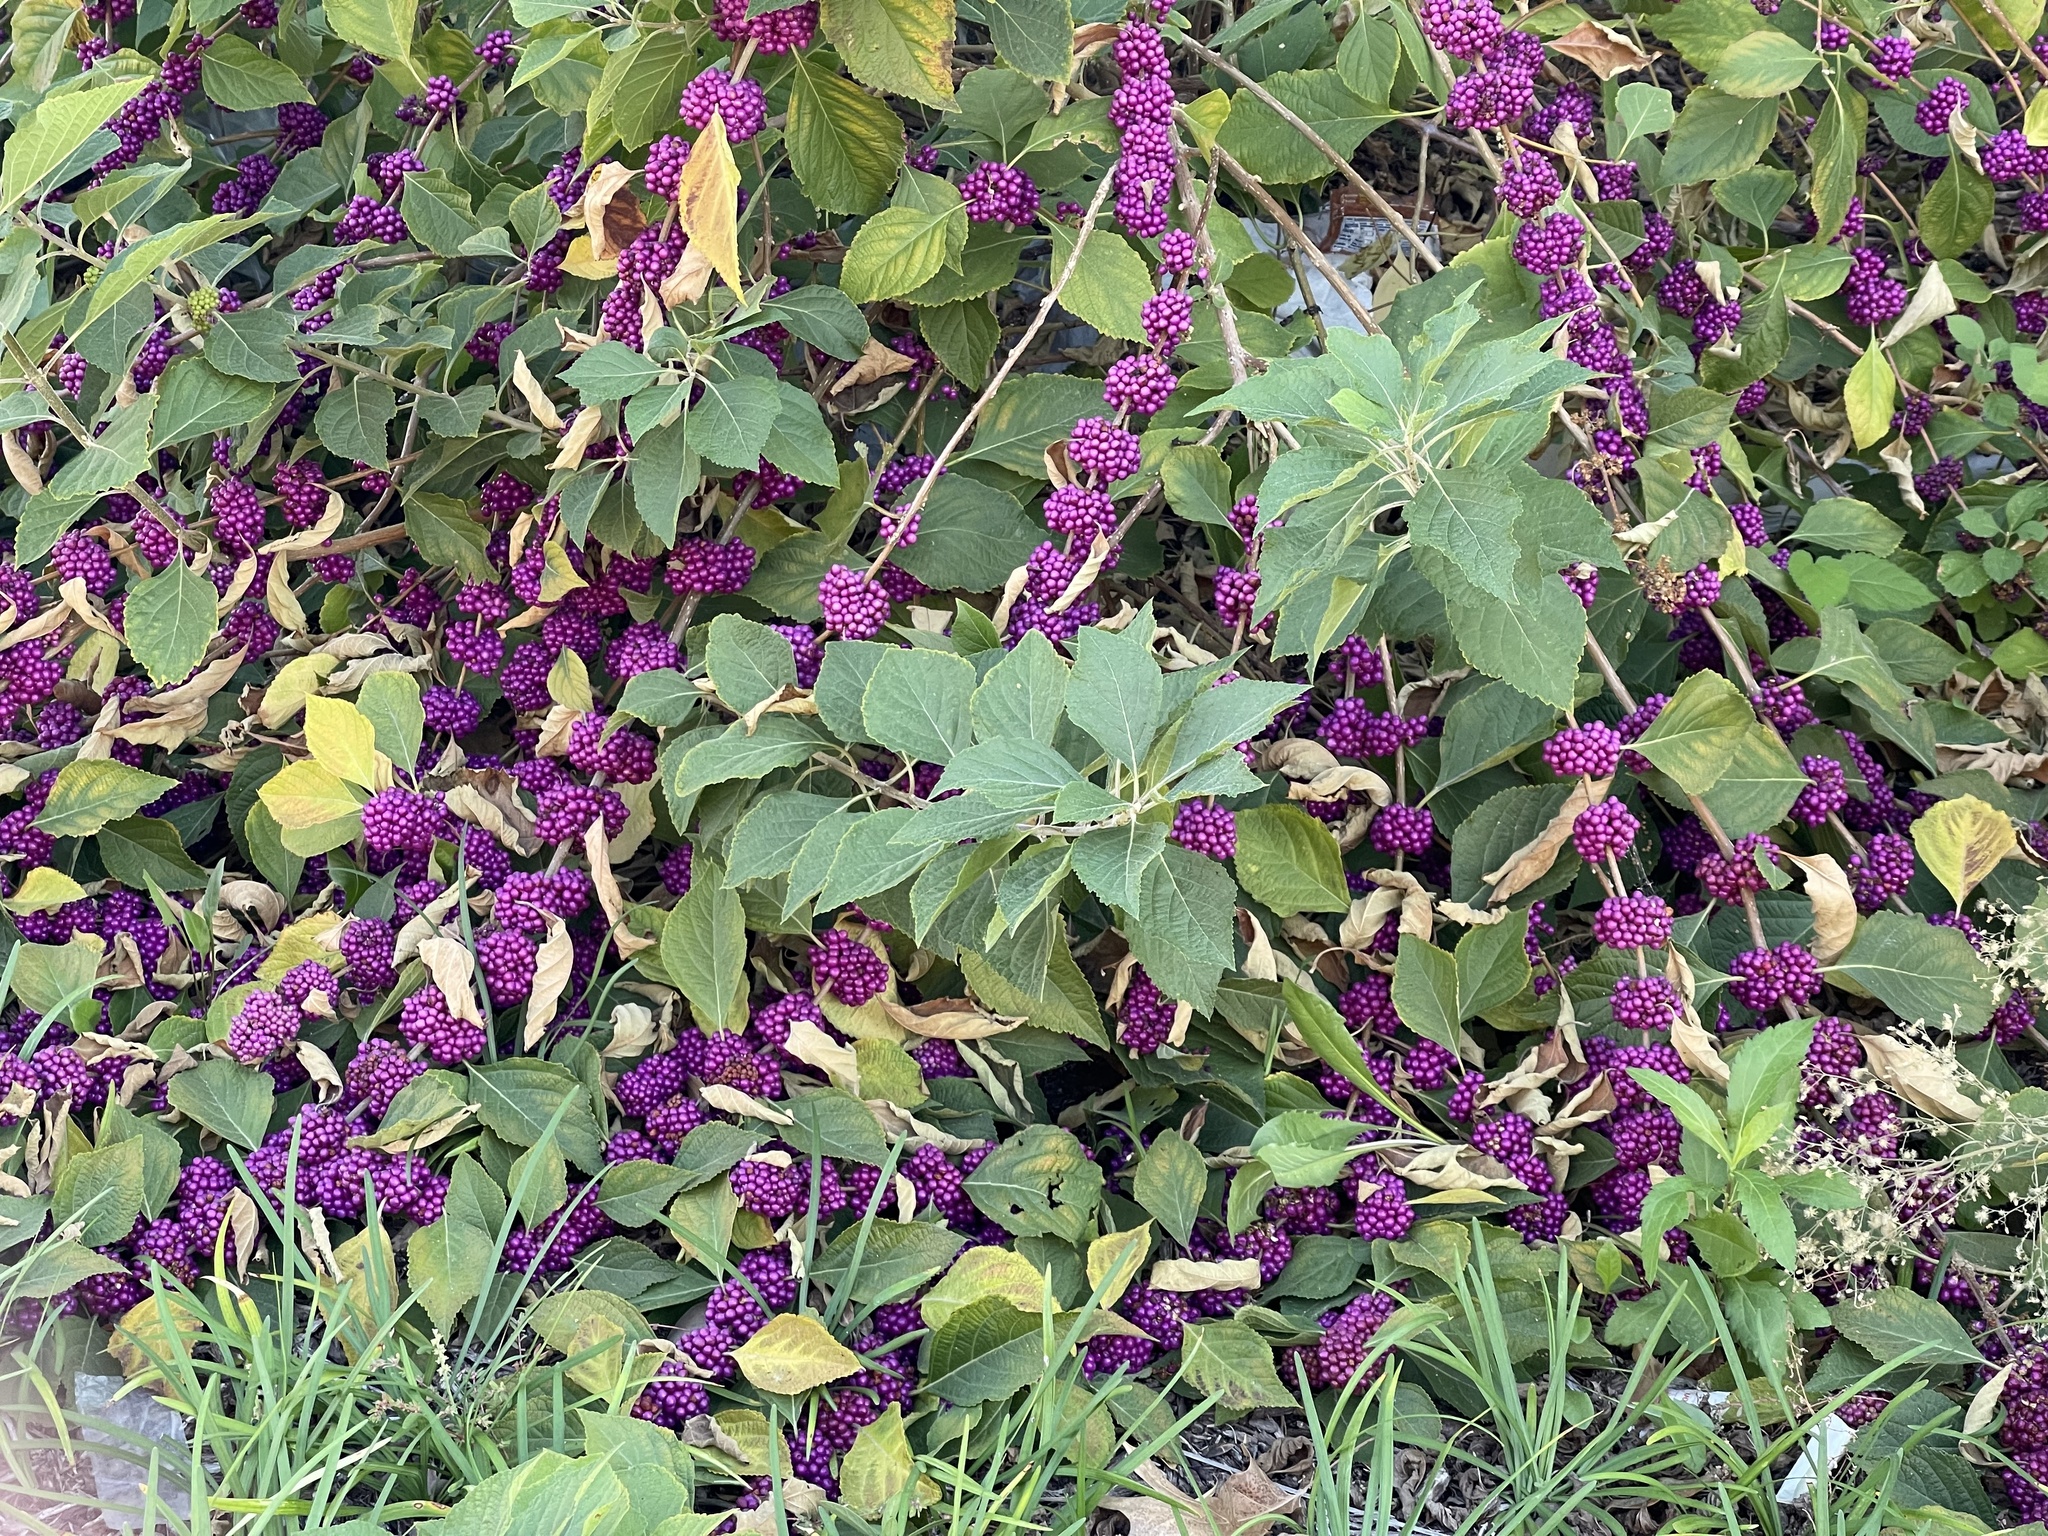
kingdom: Plantae
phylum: Tracheophyta
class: Magnoliopsida
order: Lamiales
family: Lamiaceae
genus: Callicarpa
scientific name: Callicarpa americana
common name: American beautyberry
